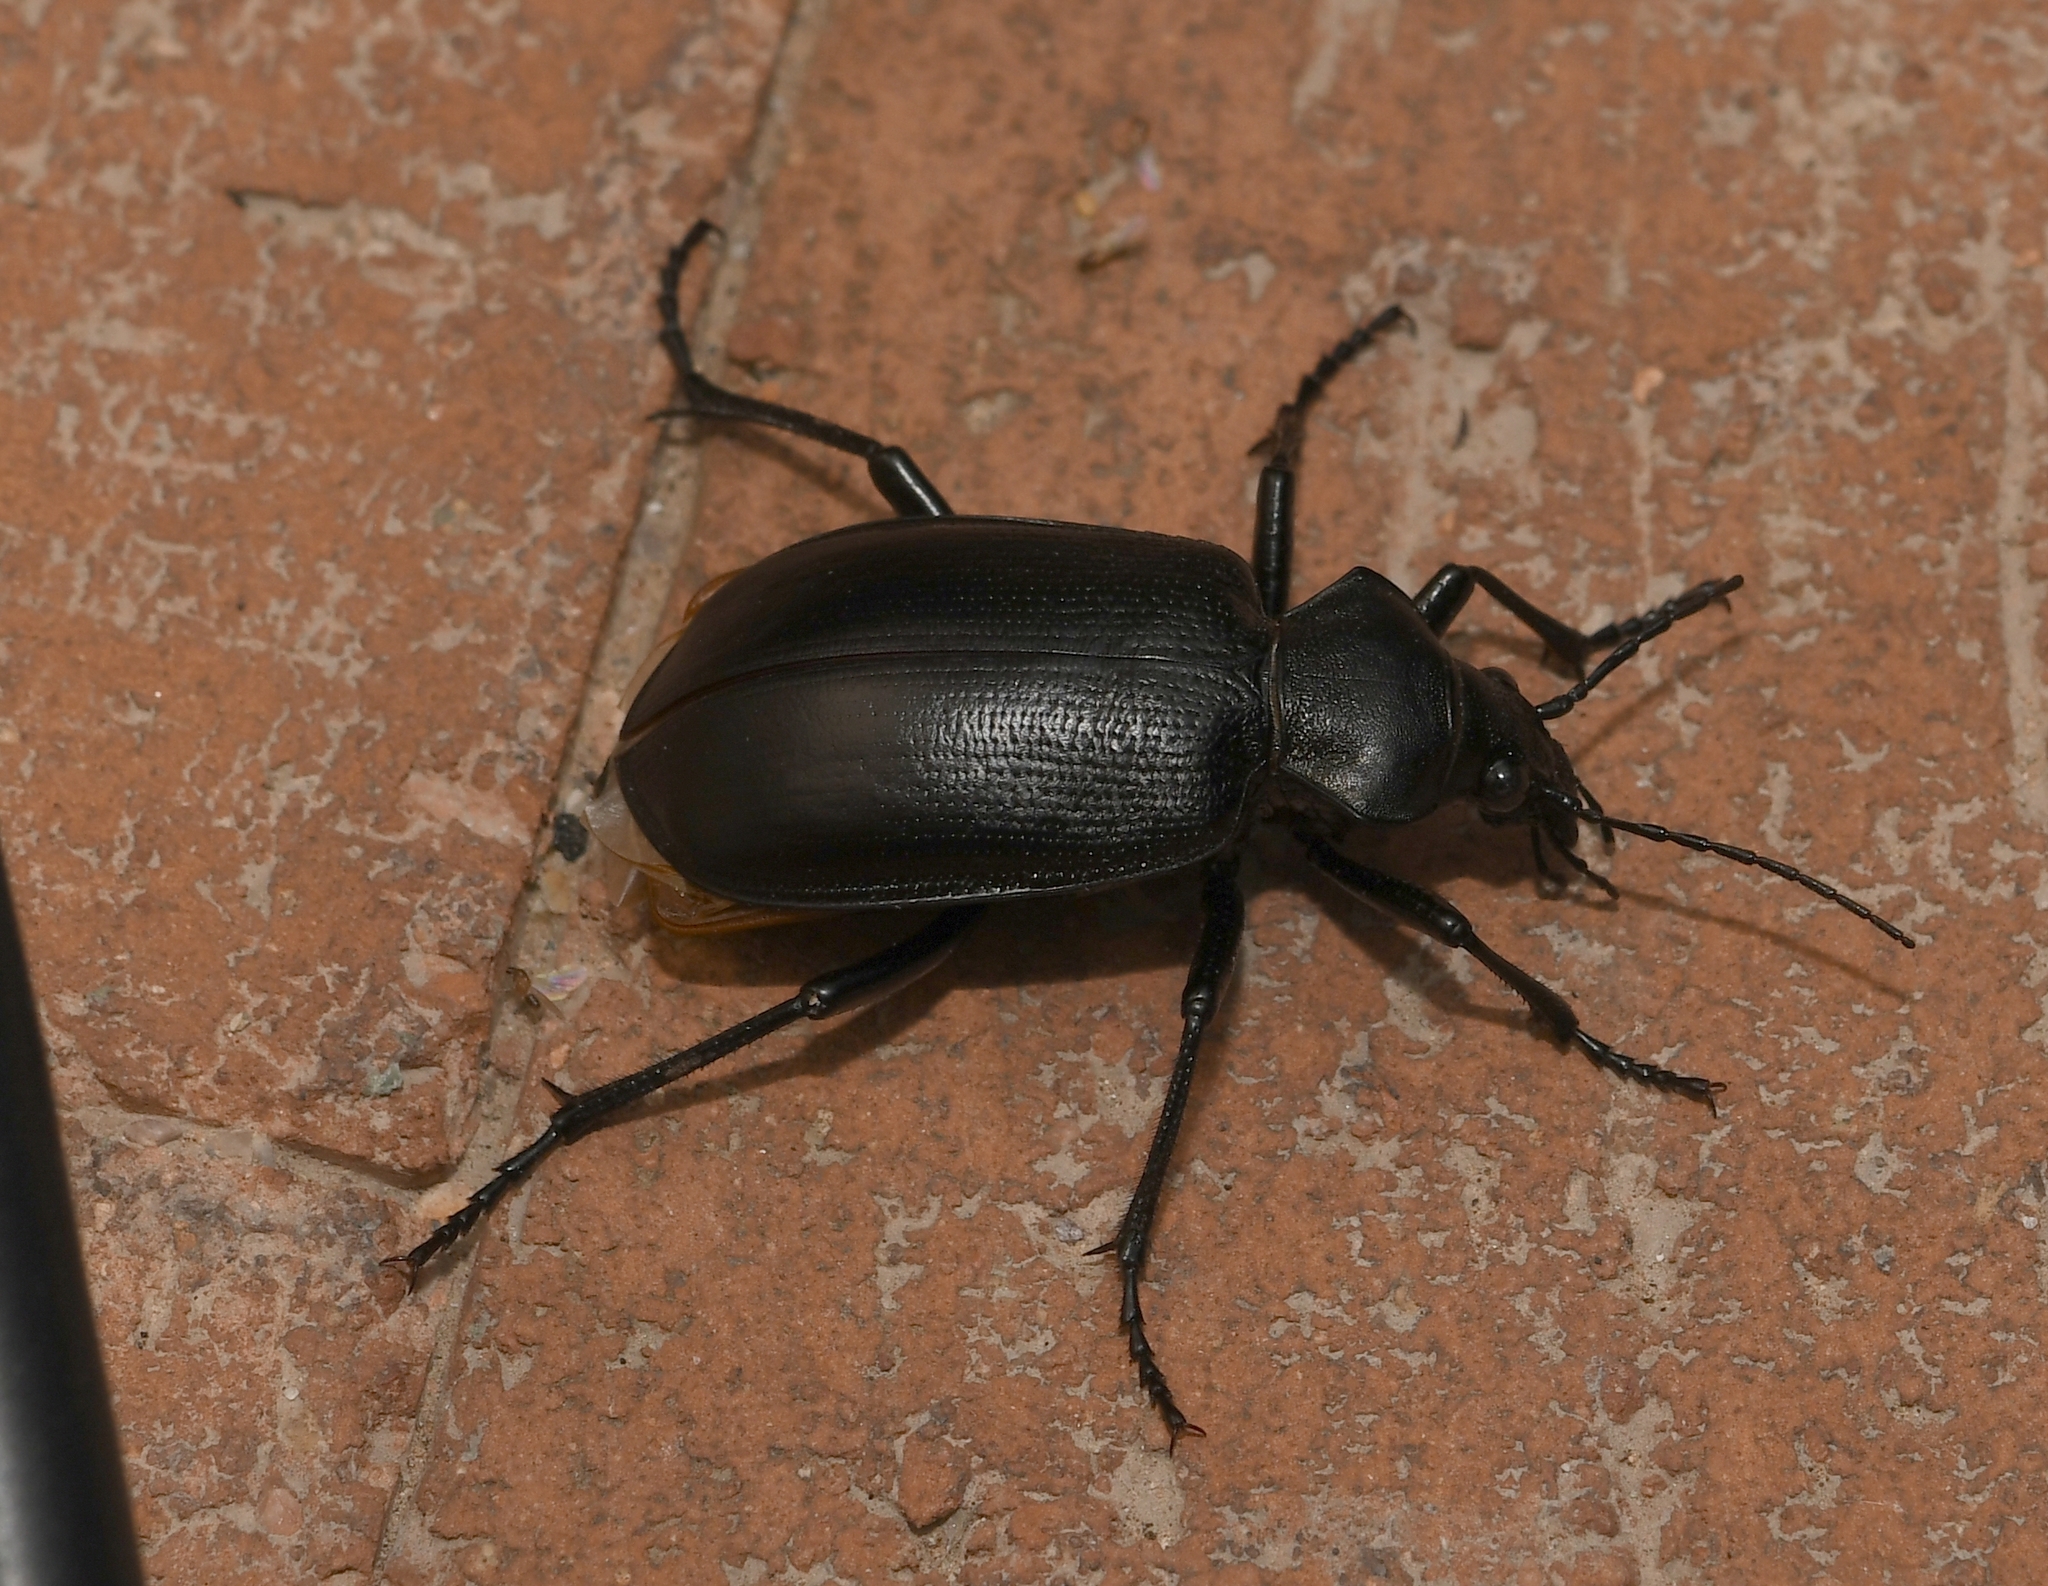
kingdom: Animalia
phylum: Arthropoda
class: Insecta
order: Coleoptera
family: Carabidae
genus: Calosoma
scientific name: Calosoma angulatum
